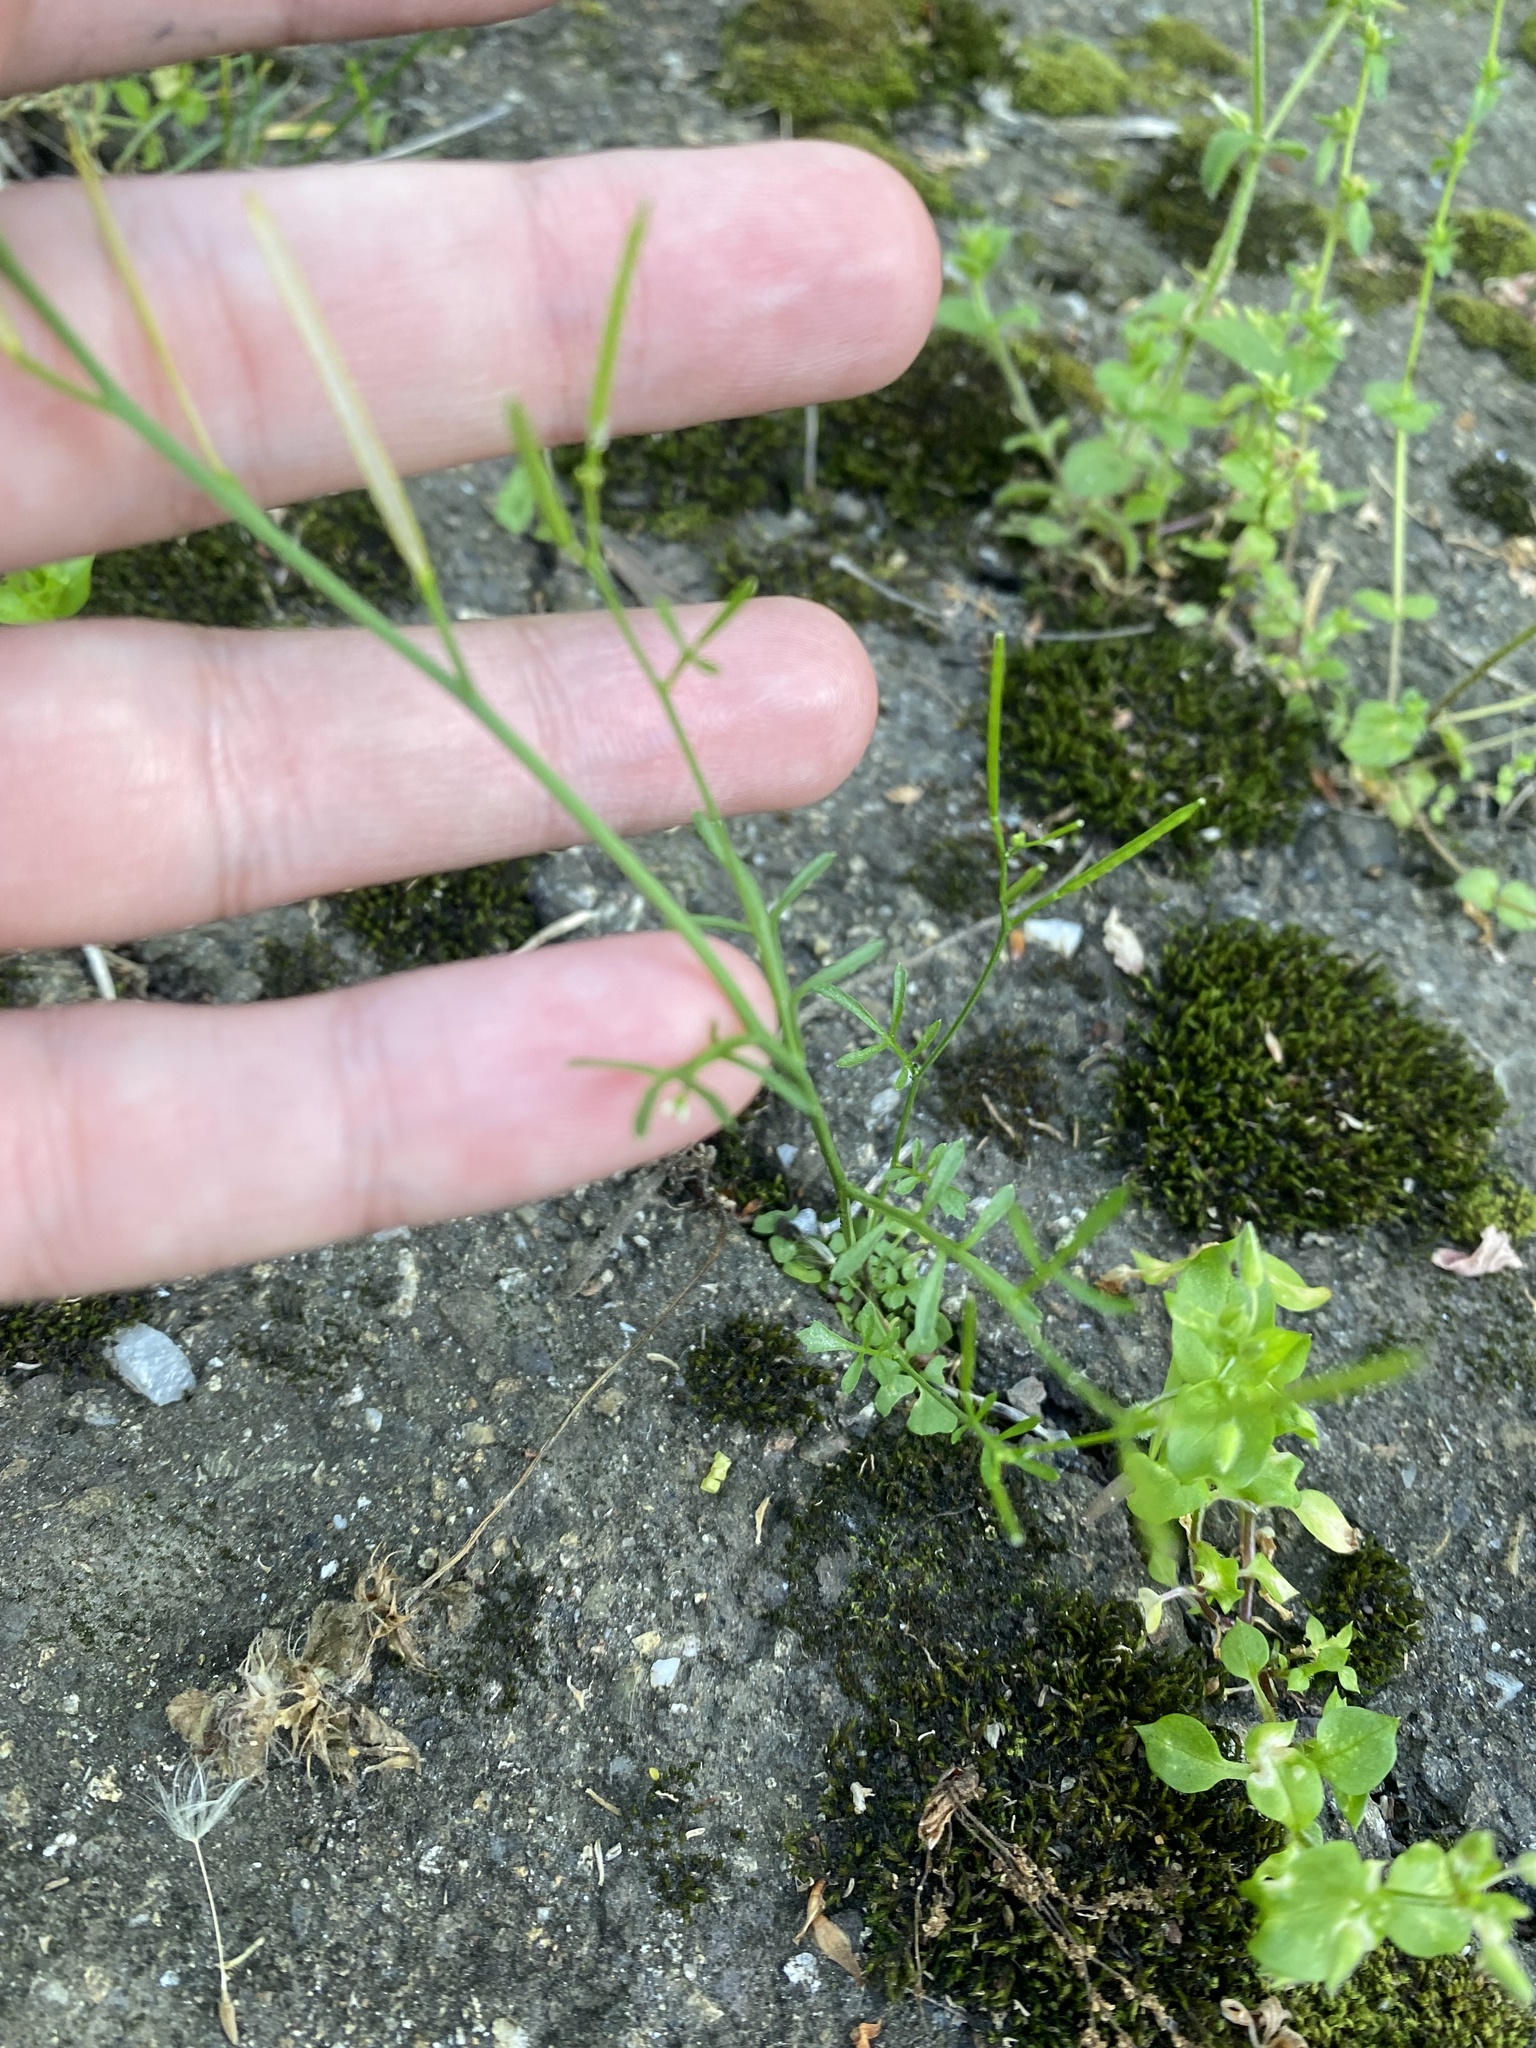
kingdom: Plantae
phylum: Tracheophyta
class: Magnoliopsida
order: Brassicales
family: Brassicaceae
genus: Cardamine
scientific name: Cardamine hirsuta
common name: Hairy bittercress
